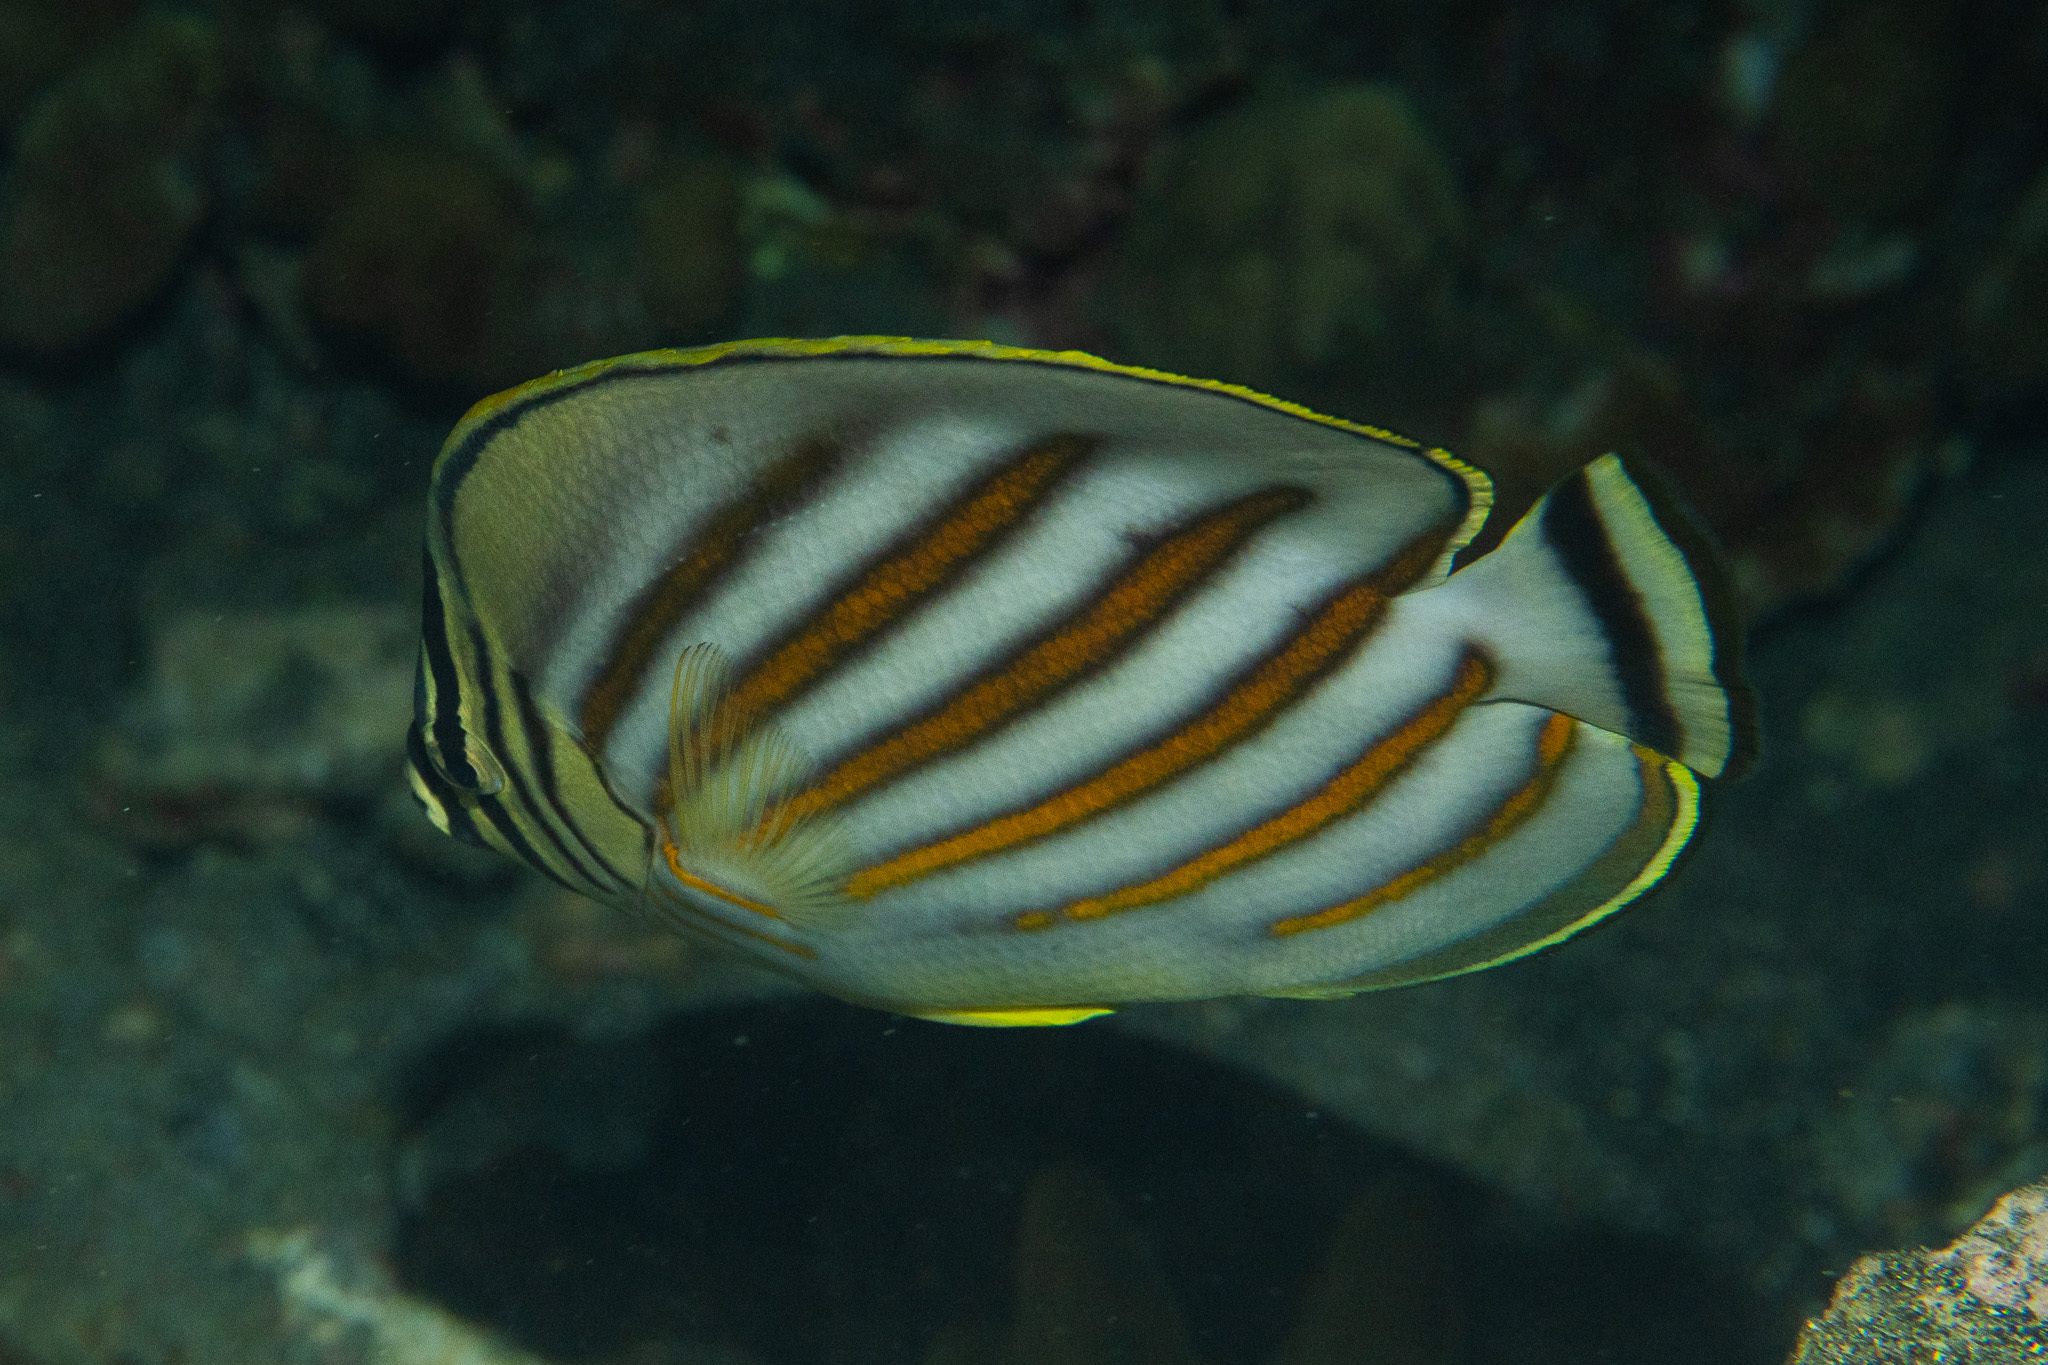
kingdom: Animalia
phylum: Chordata
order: Perciformes
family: Chaetodontidae
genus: Chaetodon
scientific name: Chaetodon ornatissimus
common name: Ornate butterflyfish
